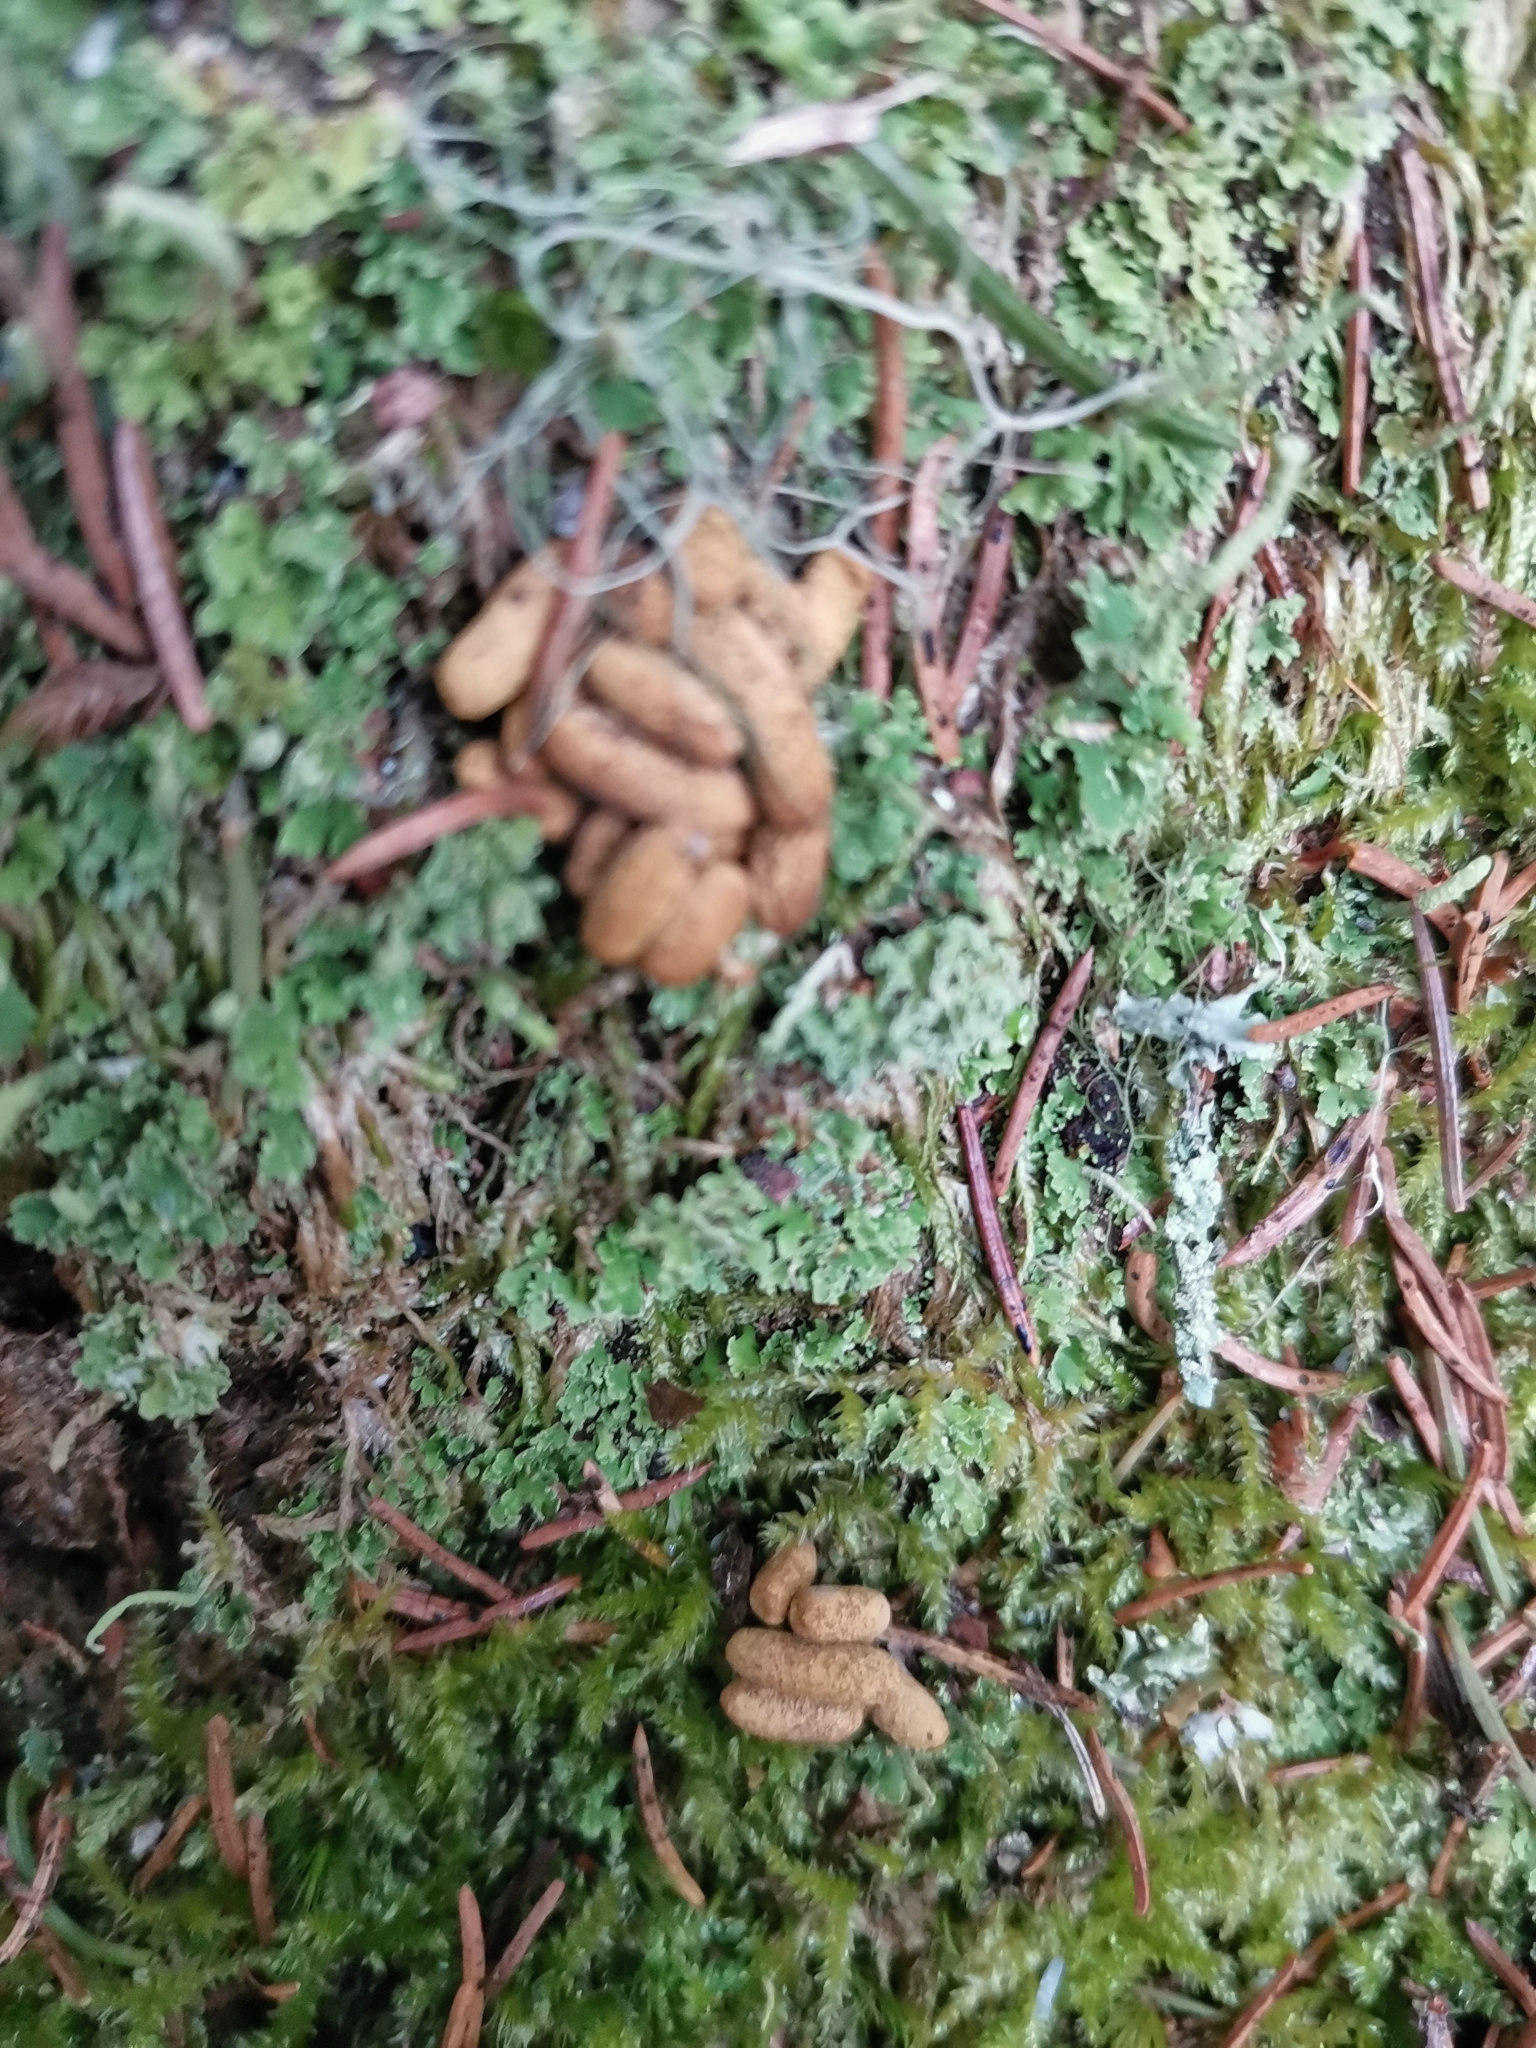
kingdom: Animalia
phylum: Chordata
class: Mammalia
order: Rodentia
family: Sciuridae
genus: Pteromys
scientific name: Pteromys volans
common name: Siberian flying squirrel
